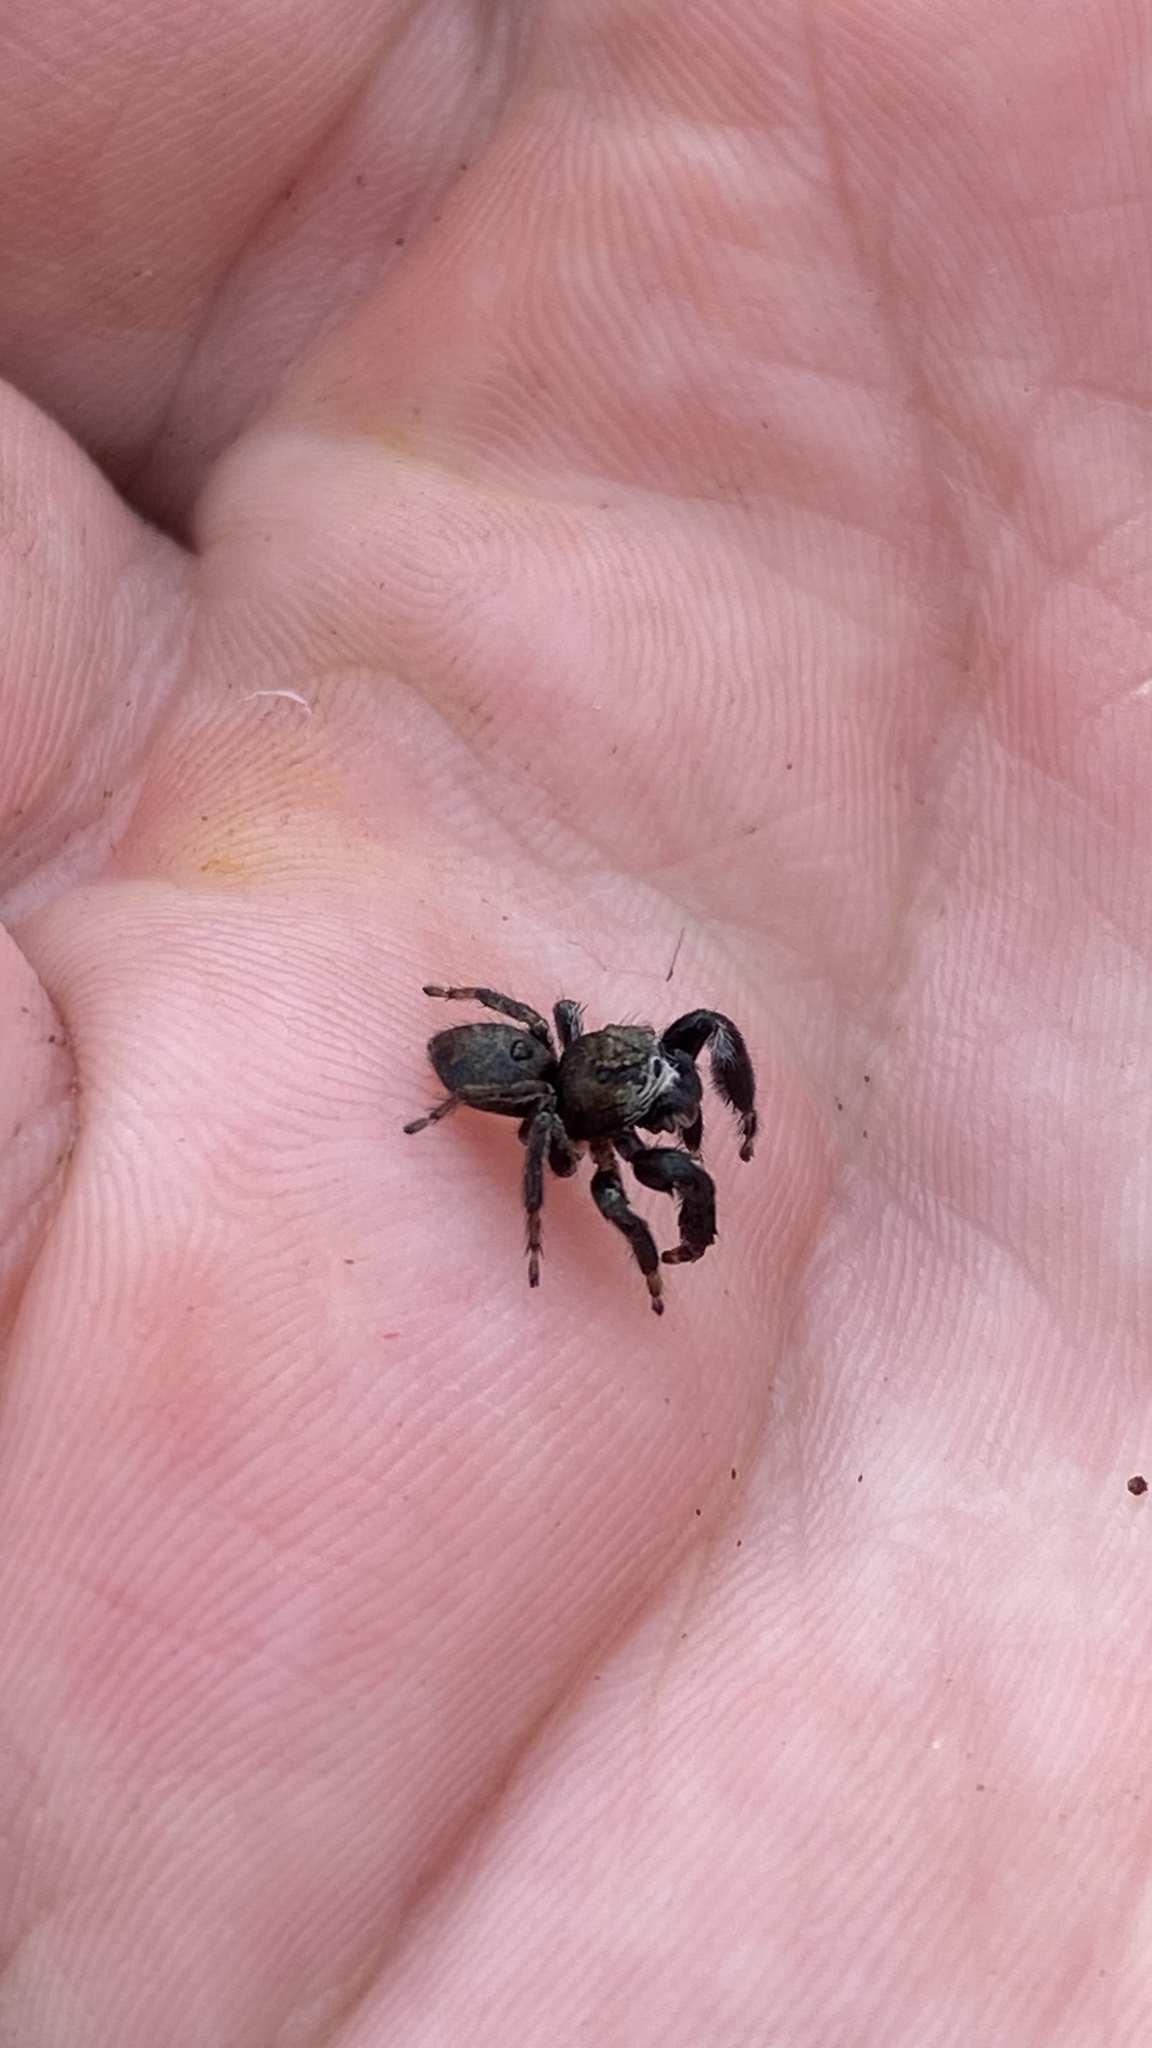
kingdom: Animalia
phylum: Arthropoda
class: Arachnida
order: Araneae
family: Salticidae
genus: Evarcha
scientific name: Evarcha arcuata
